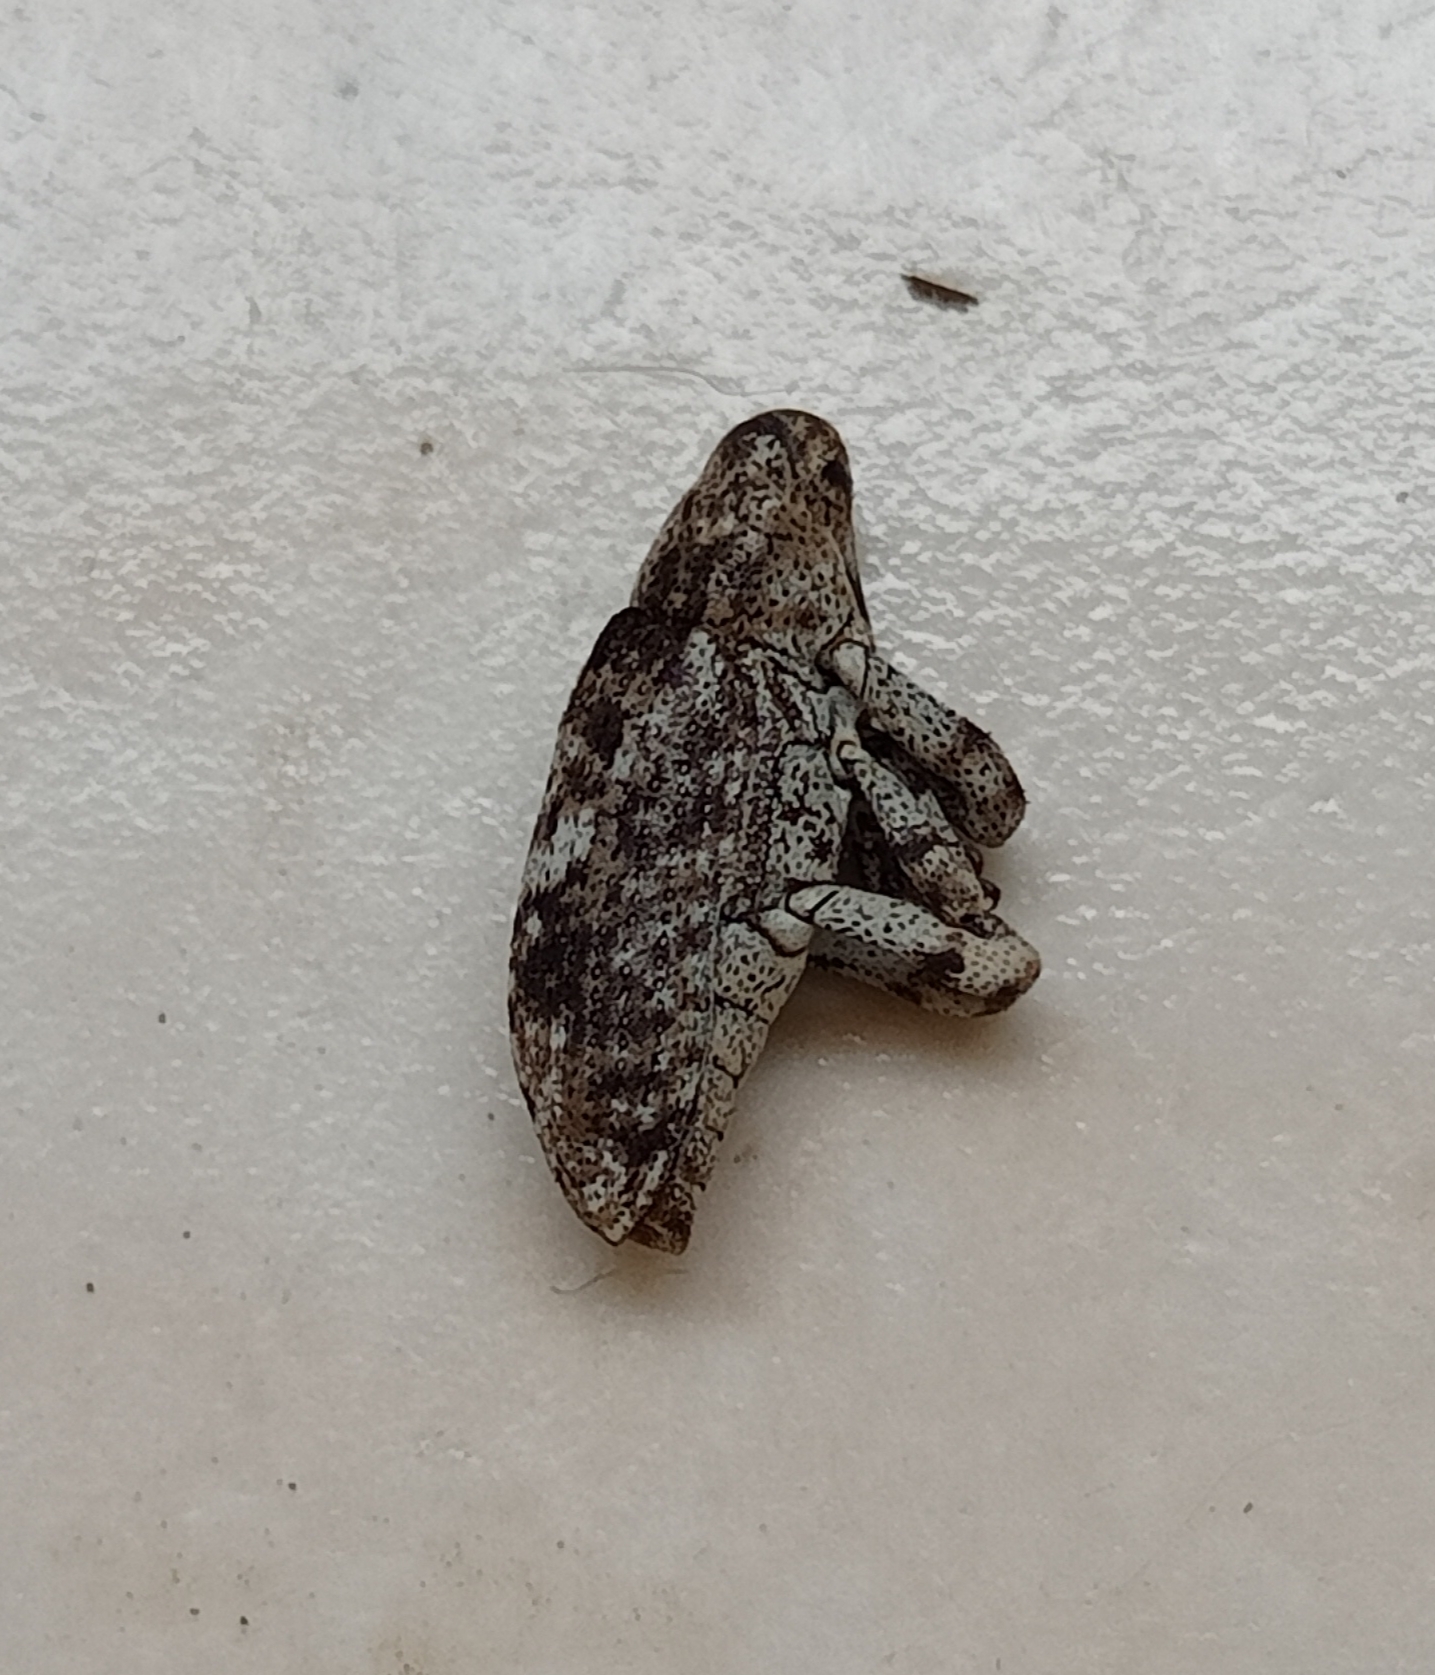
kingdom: Animalia
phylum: Arthropoda
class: Insecta
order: Coleoptera
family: Curculionidae
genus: Gasterocercus
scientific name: Gasterocercus depressirostris
